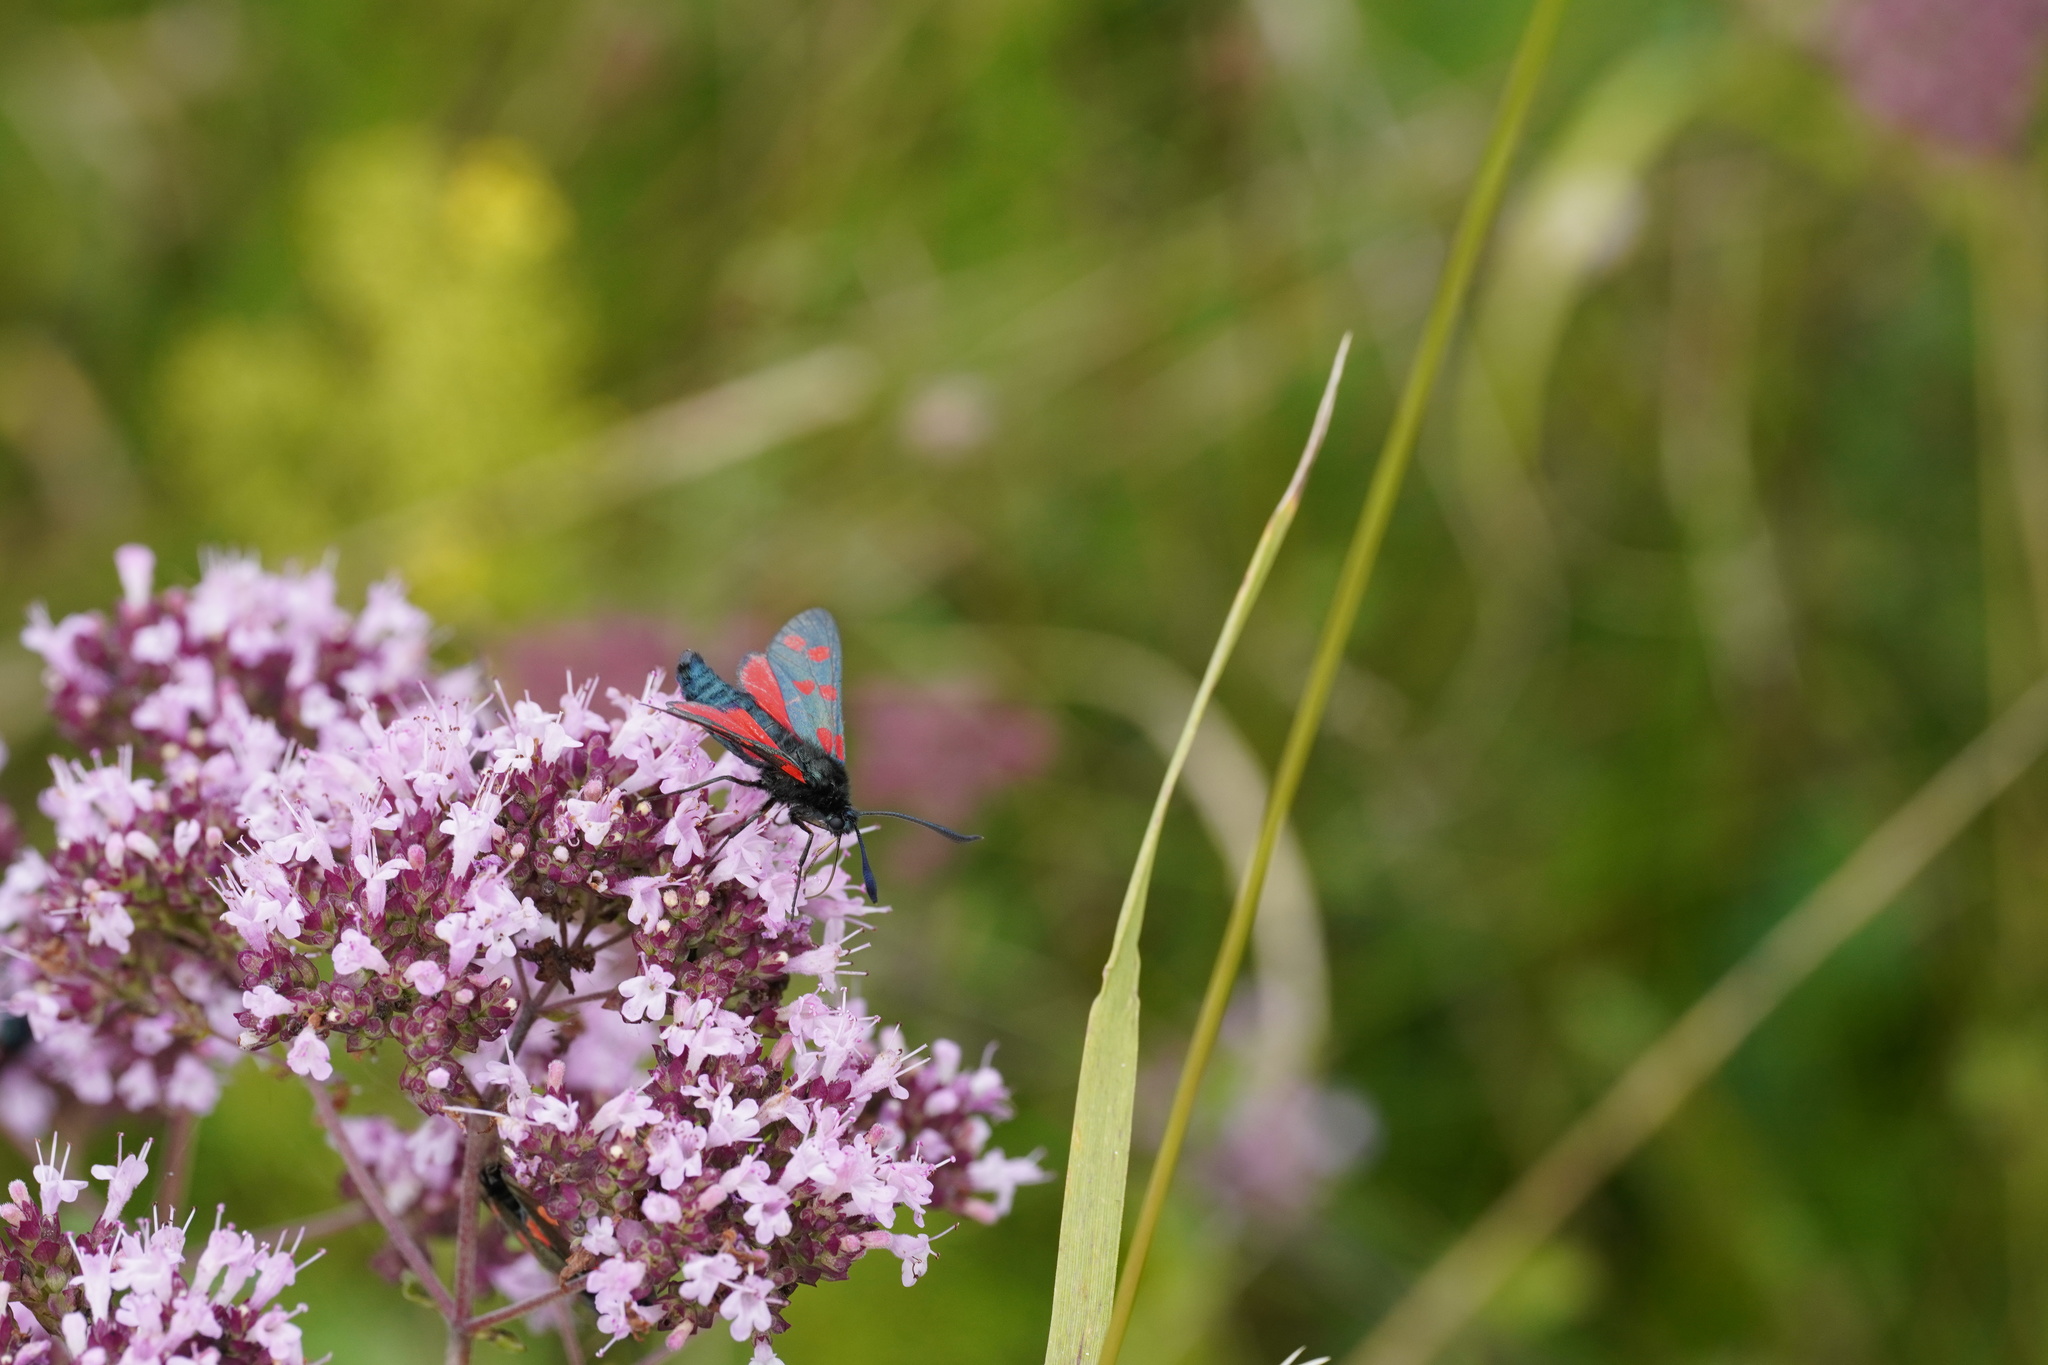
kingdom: Animalia
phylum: Arthropoda
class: Insecta
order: Lepidoptera
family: Zygaenidae
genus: Zygaena
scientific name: Zygaena filipendulae
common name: Six-spot burnet
